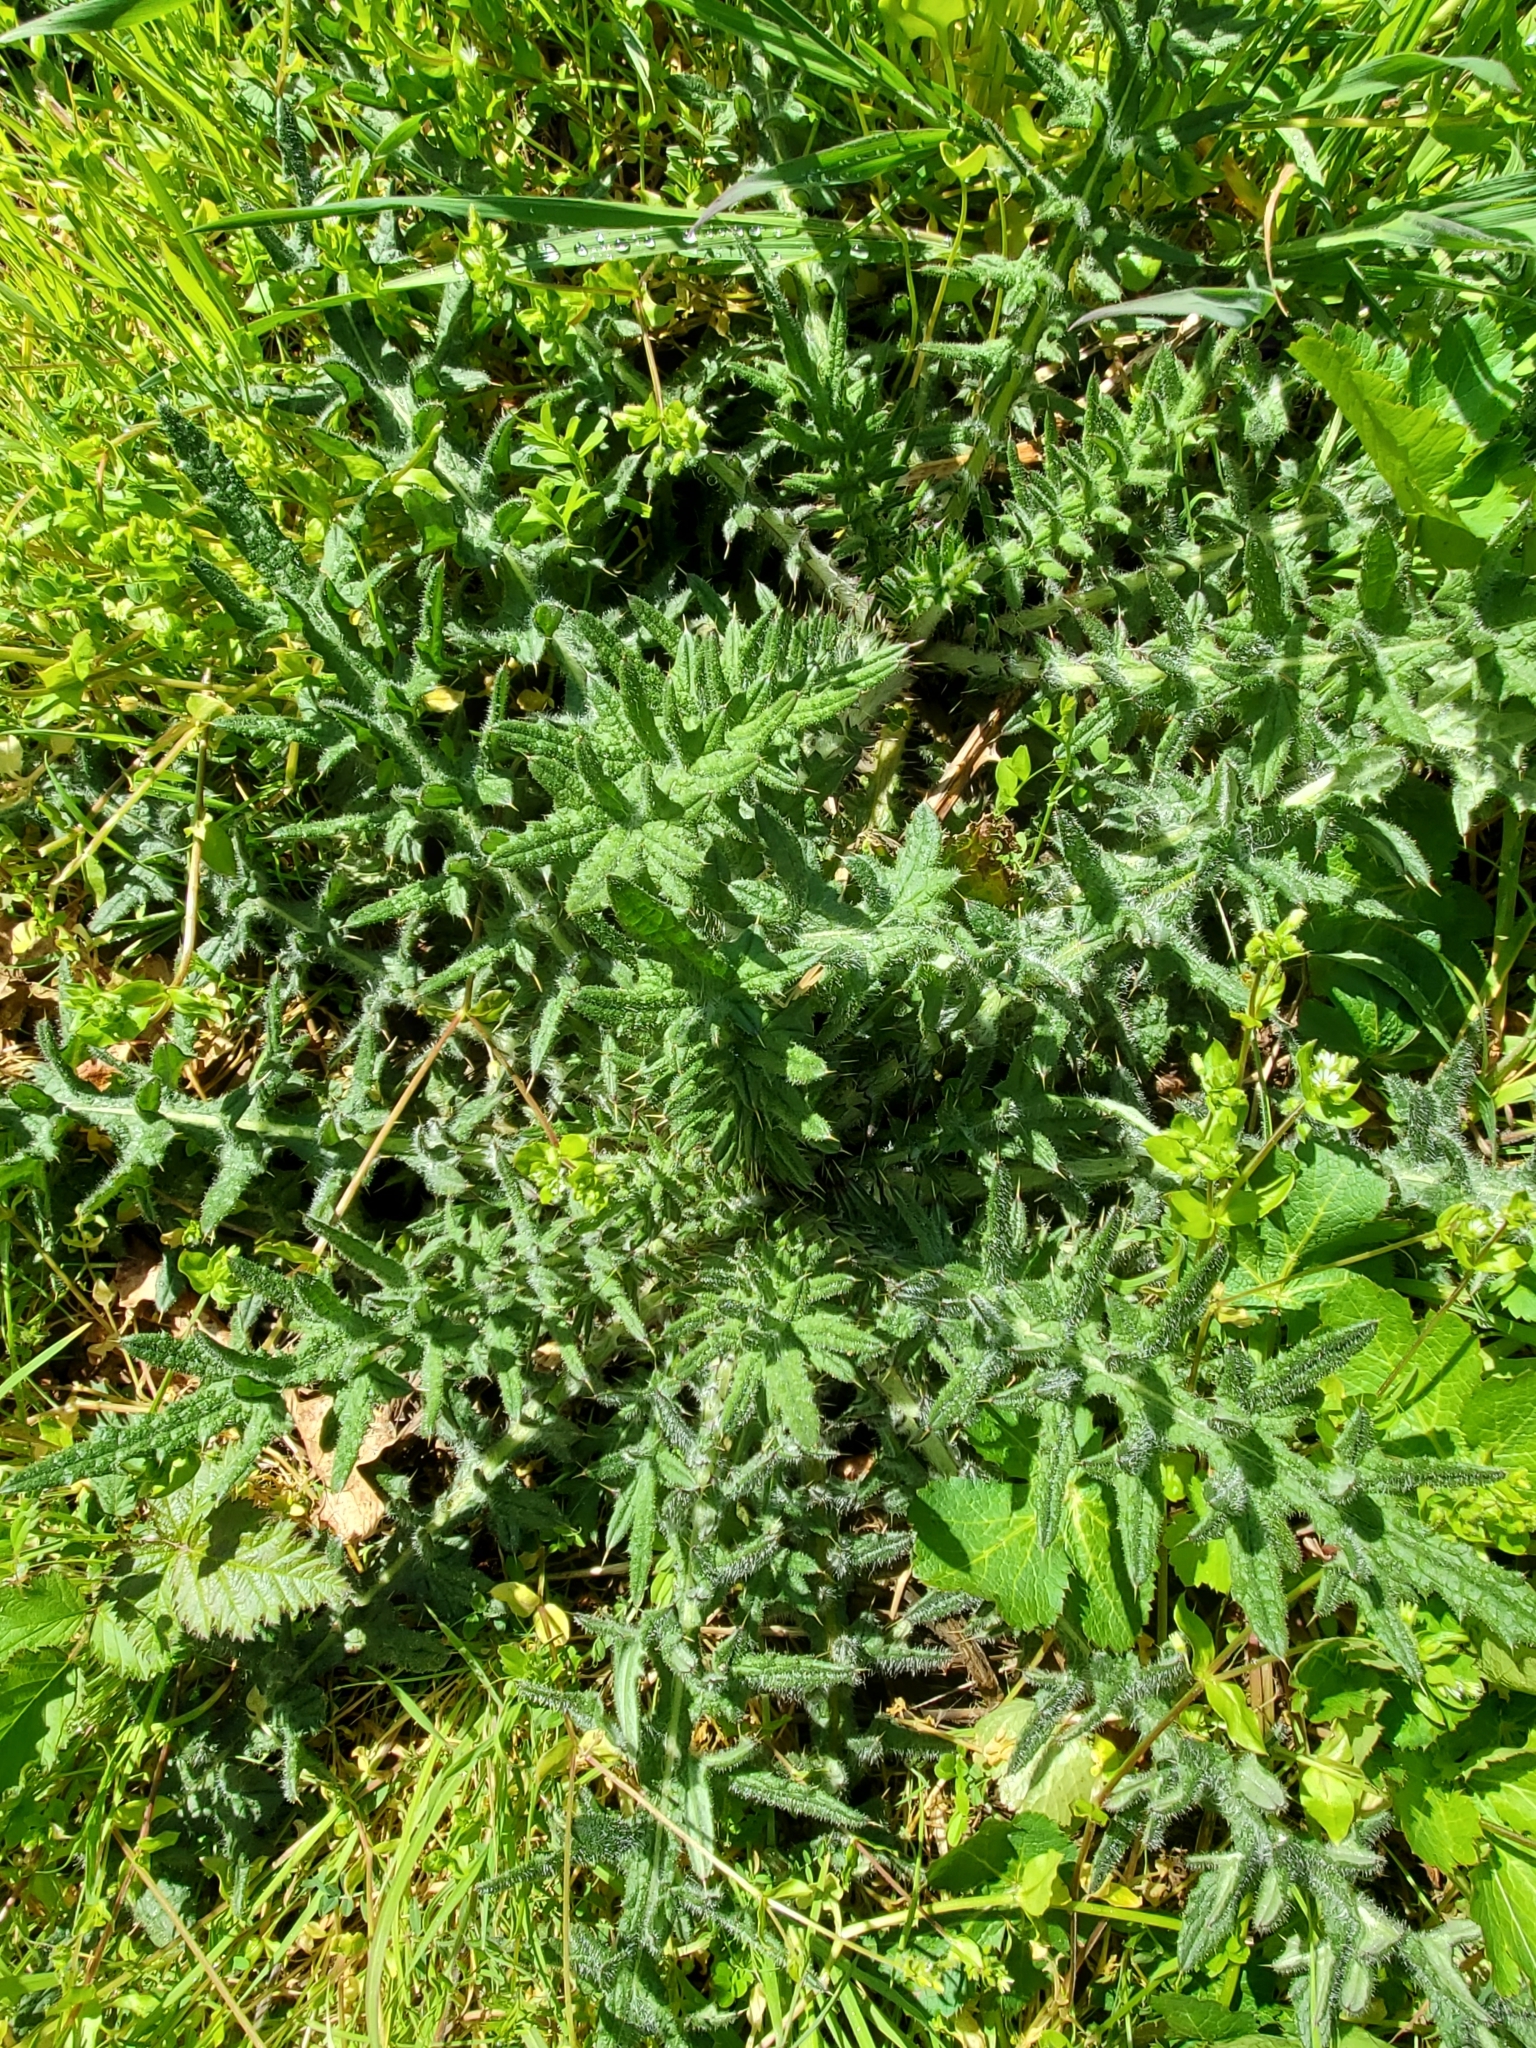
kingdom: Plantae
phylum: Tracheophyta
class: Magnoliopsida
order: Asterales
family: Asteraceae
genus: Cirsium
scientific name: Cirsium vulgare
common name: Bull thistle
